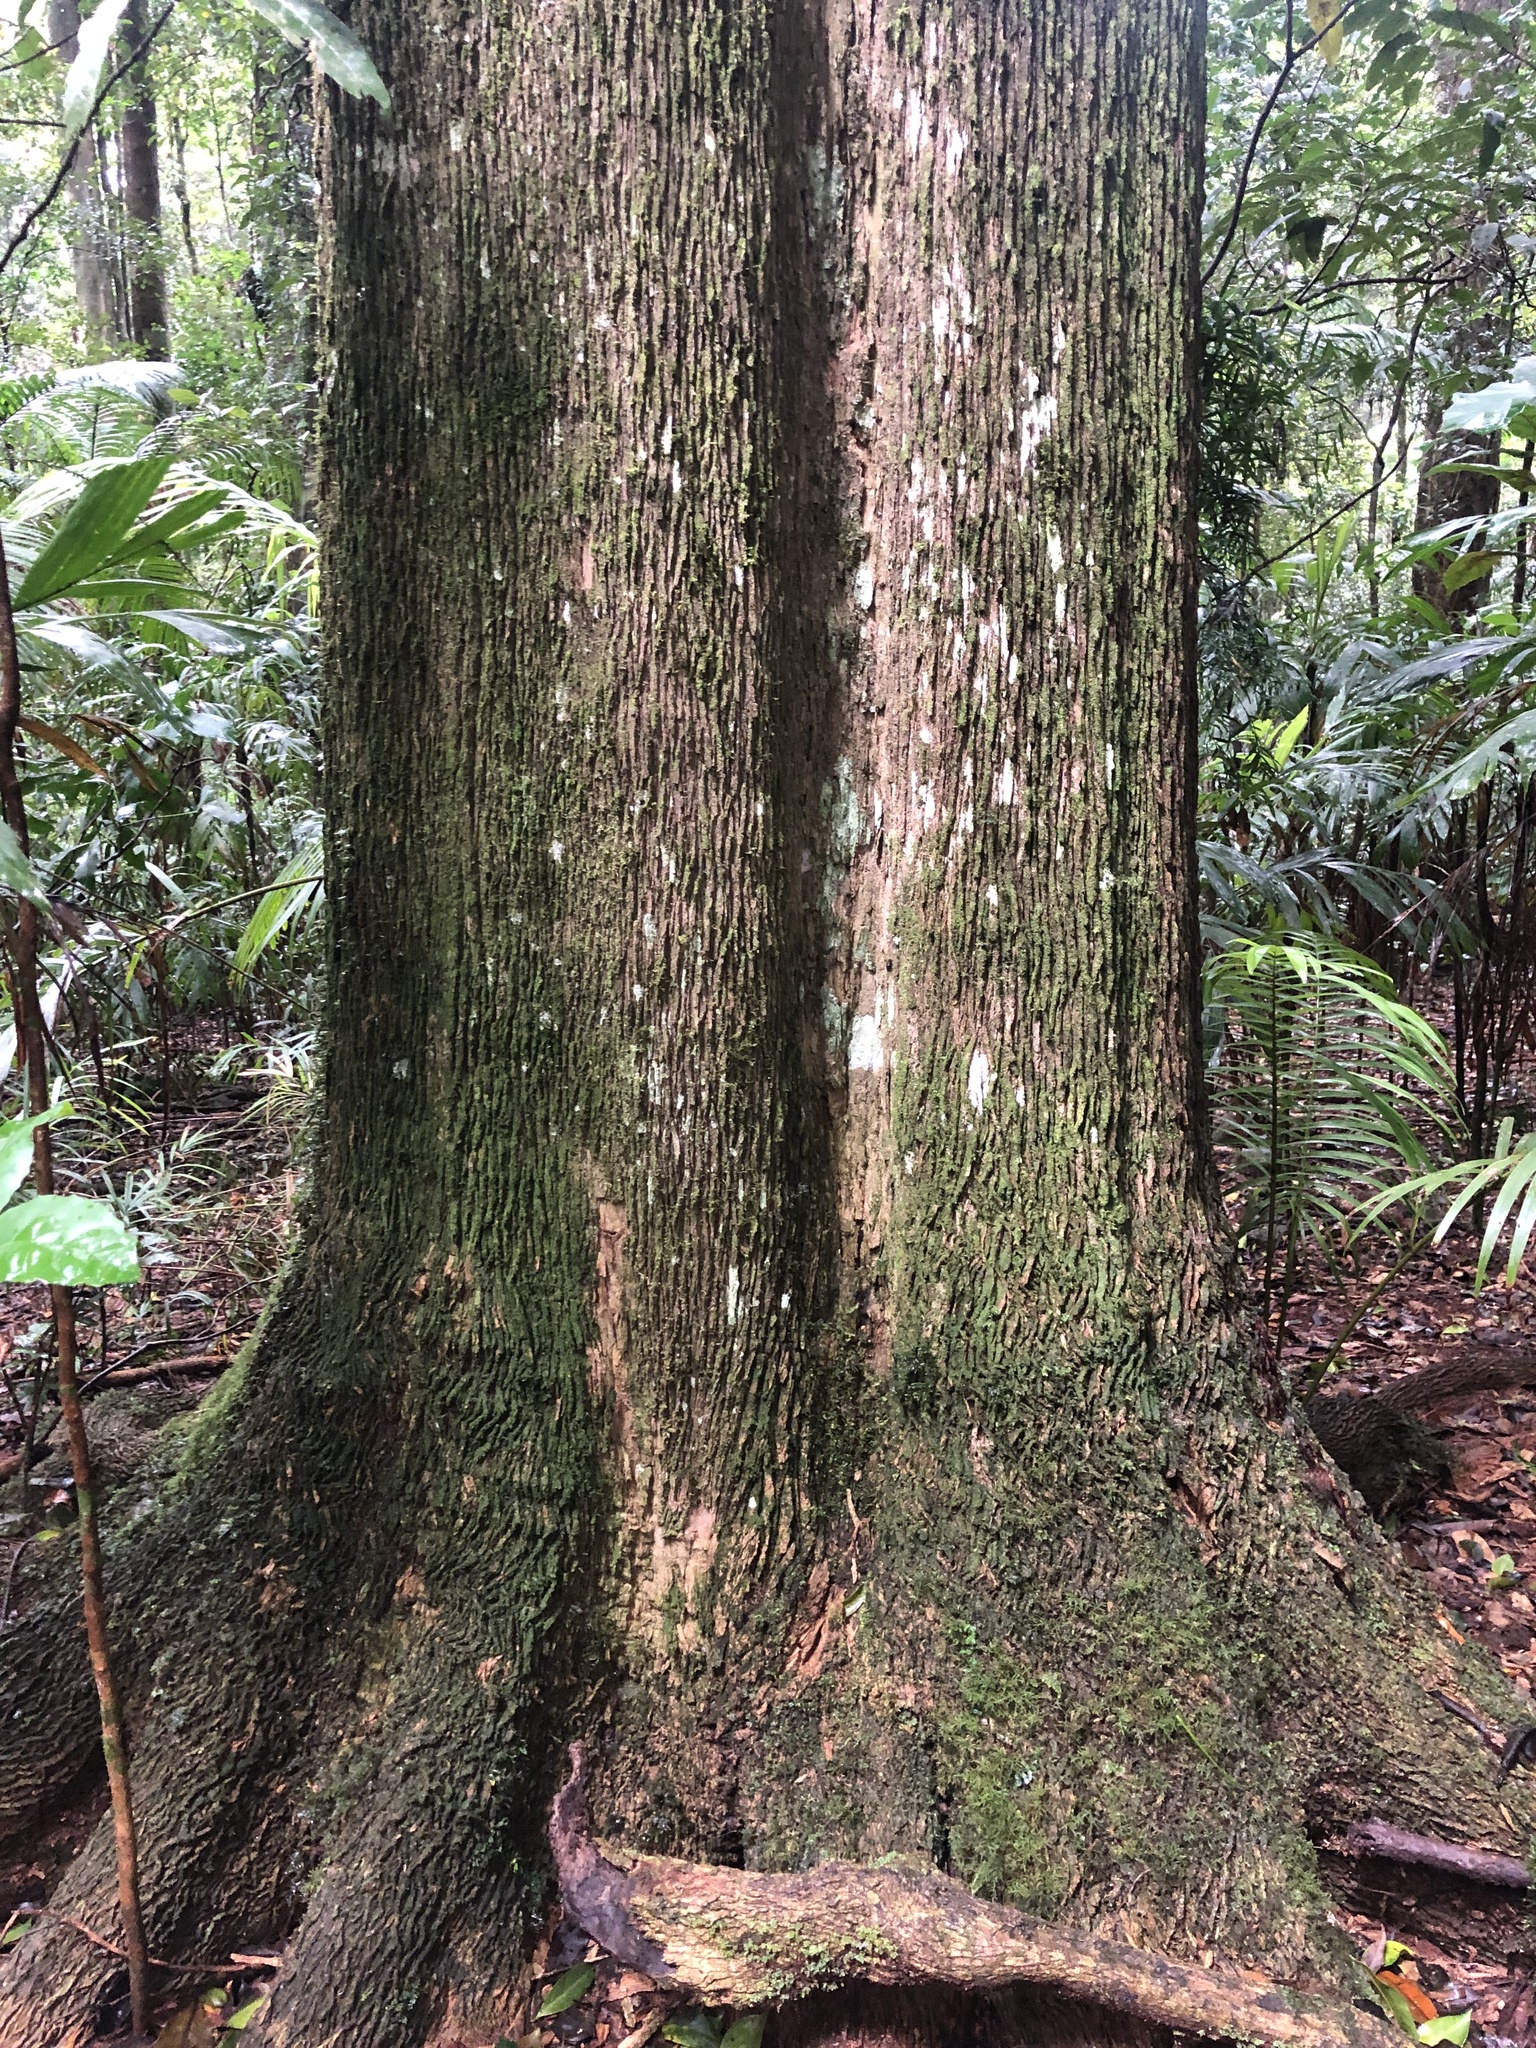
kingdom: Plantae
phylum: Tracheophyta
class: Magnoliopsida
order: Cardiopteridales
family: Cardiopteridaceae
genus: Citronella
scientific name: Citronella moorei
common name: Churnwood
